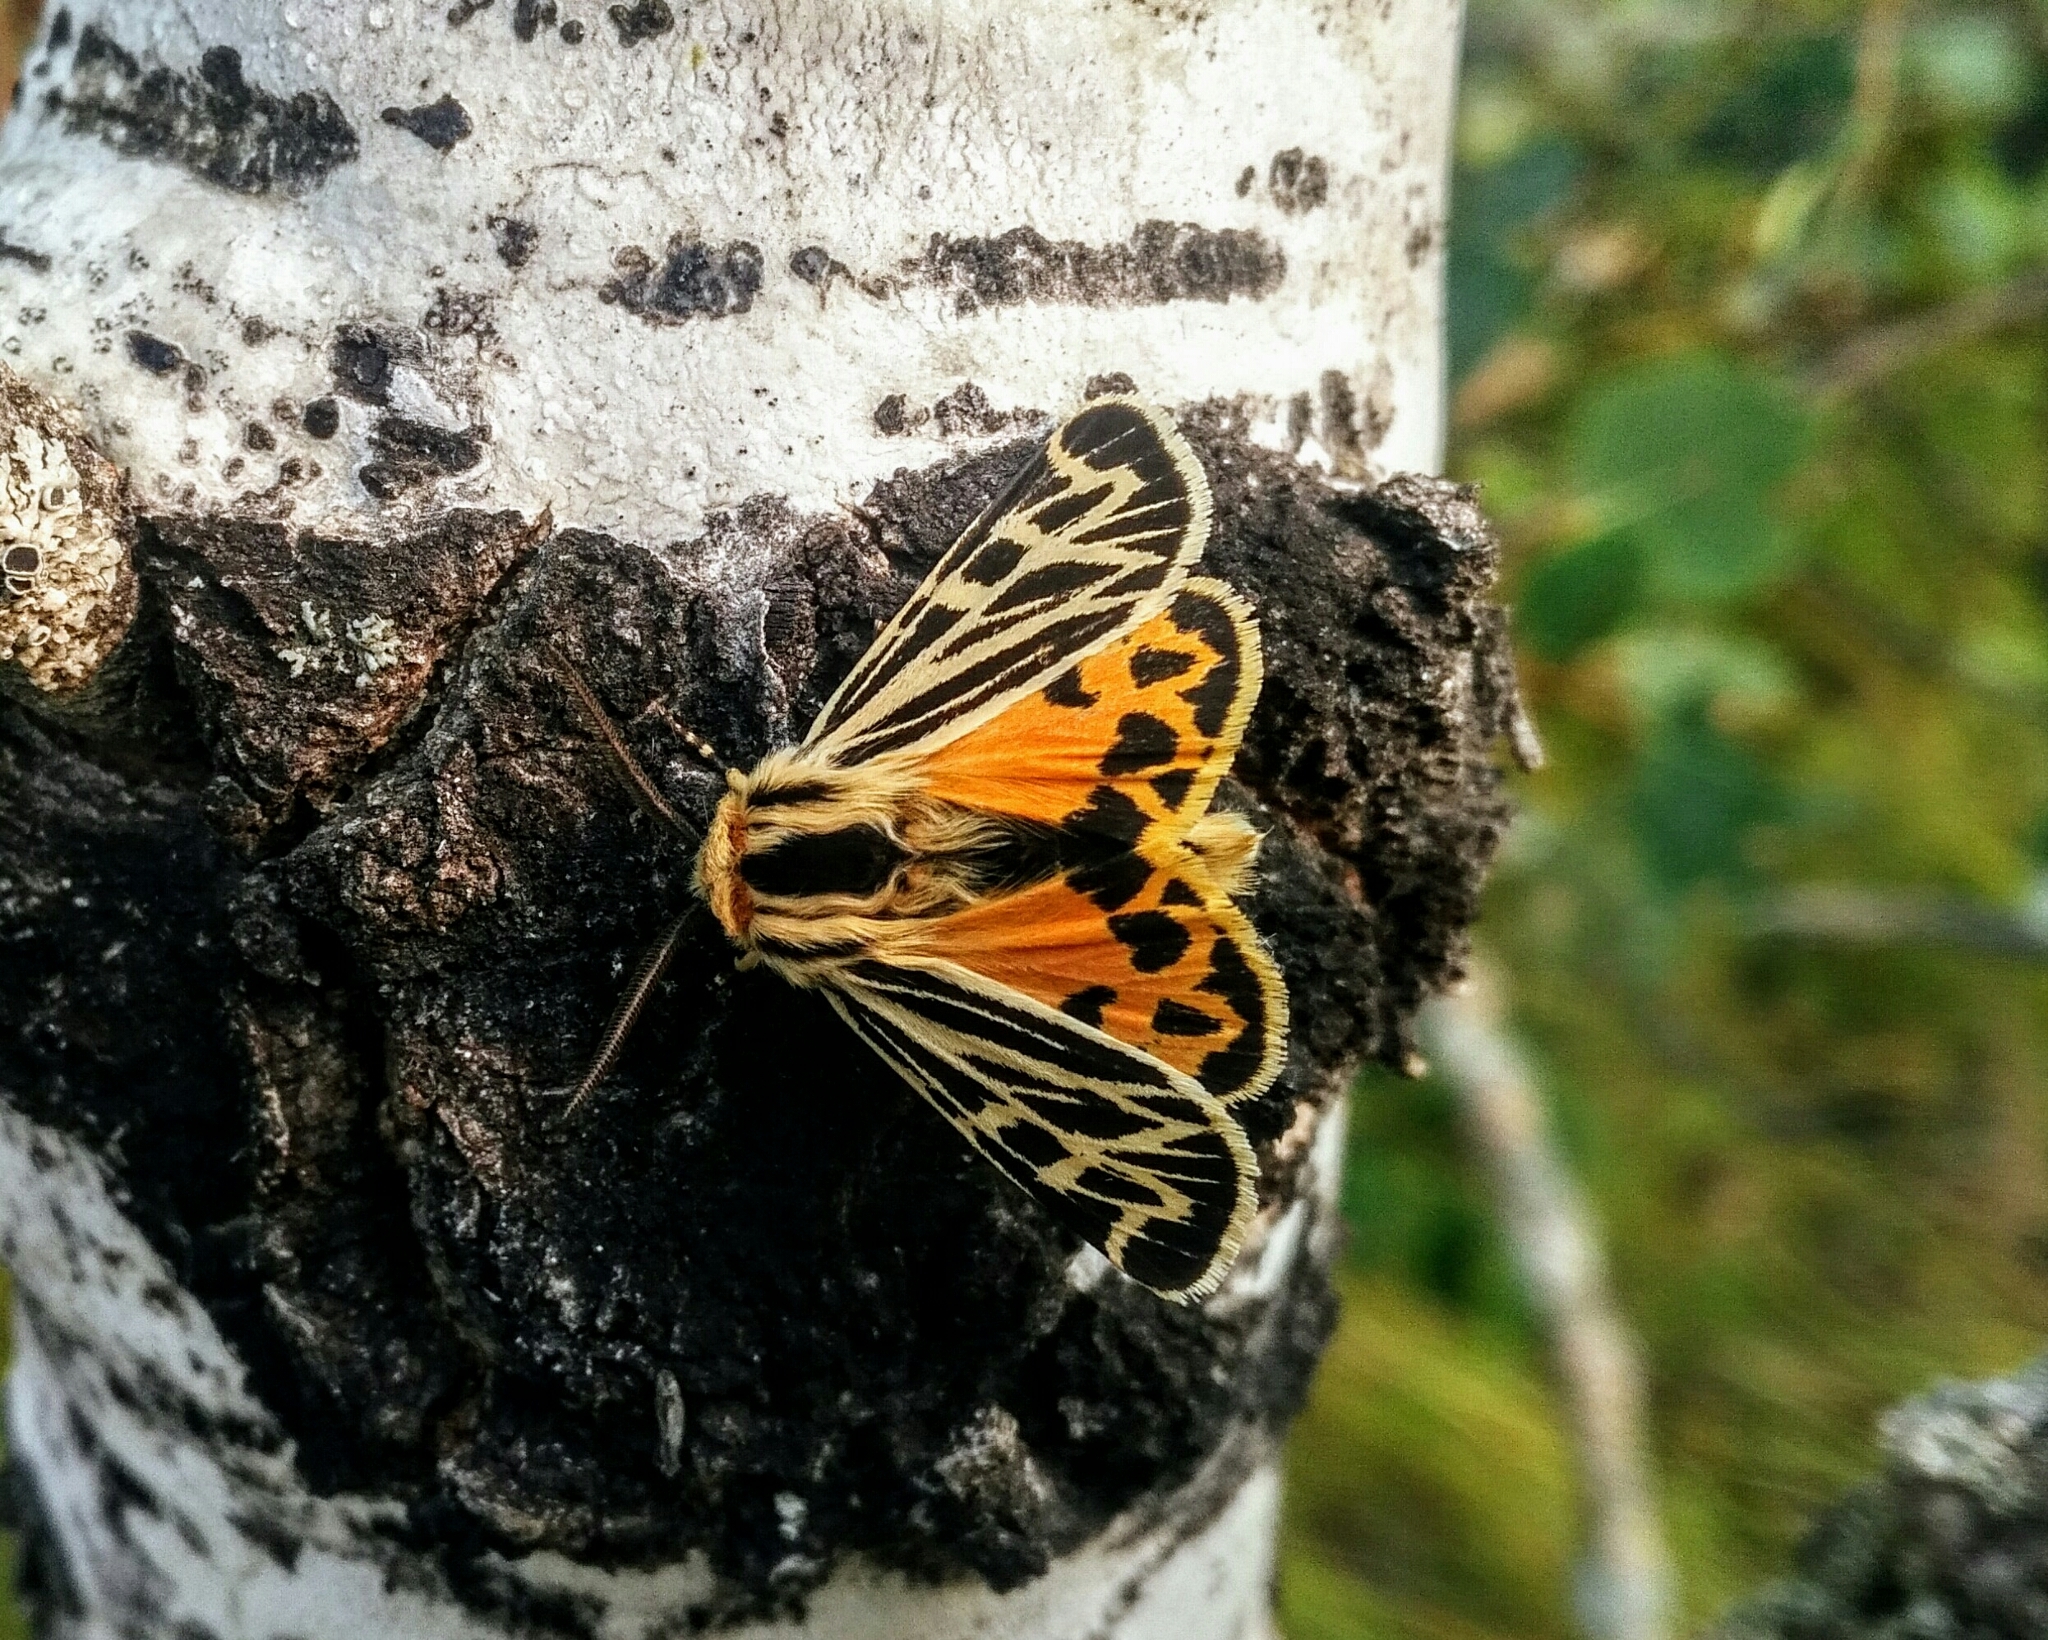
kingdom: Animalia
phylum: Arthropoda
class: Insecta
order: Lepidoptera
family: Erebidae
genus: Apantesis
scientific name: Apantesis obliterata
